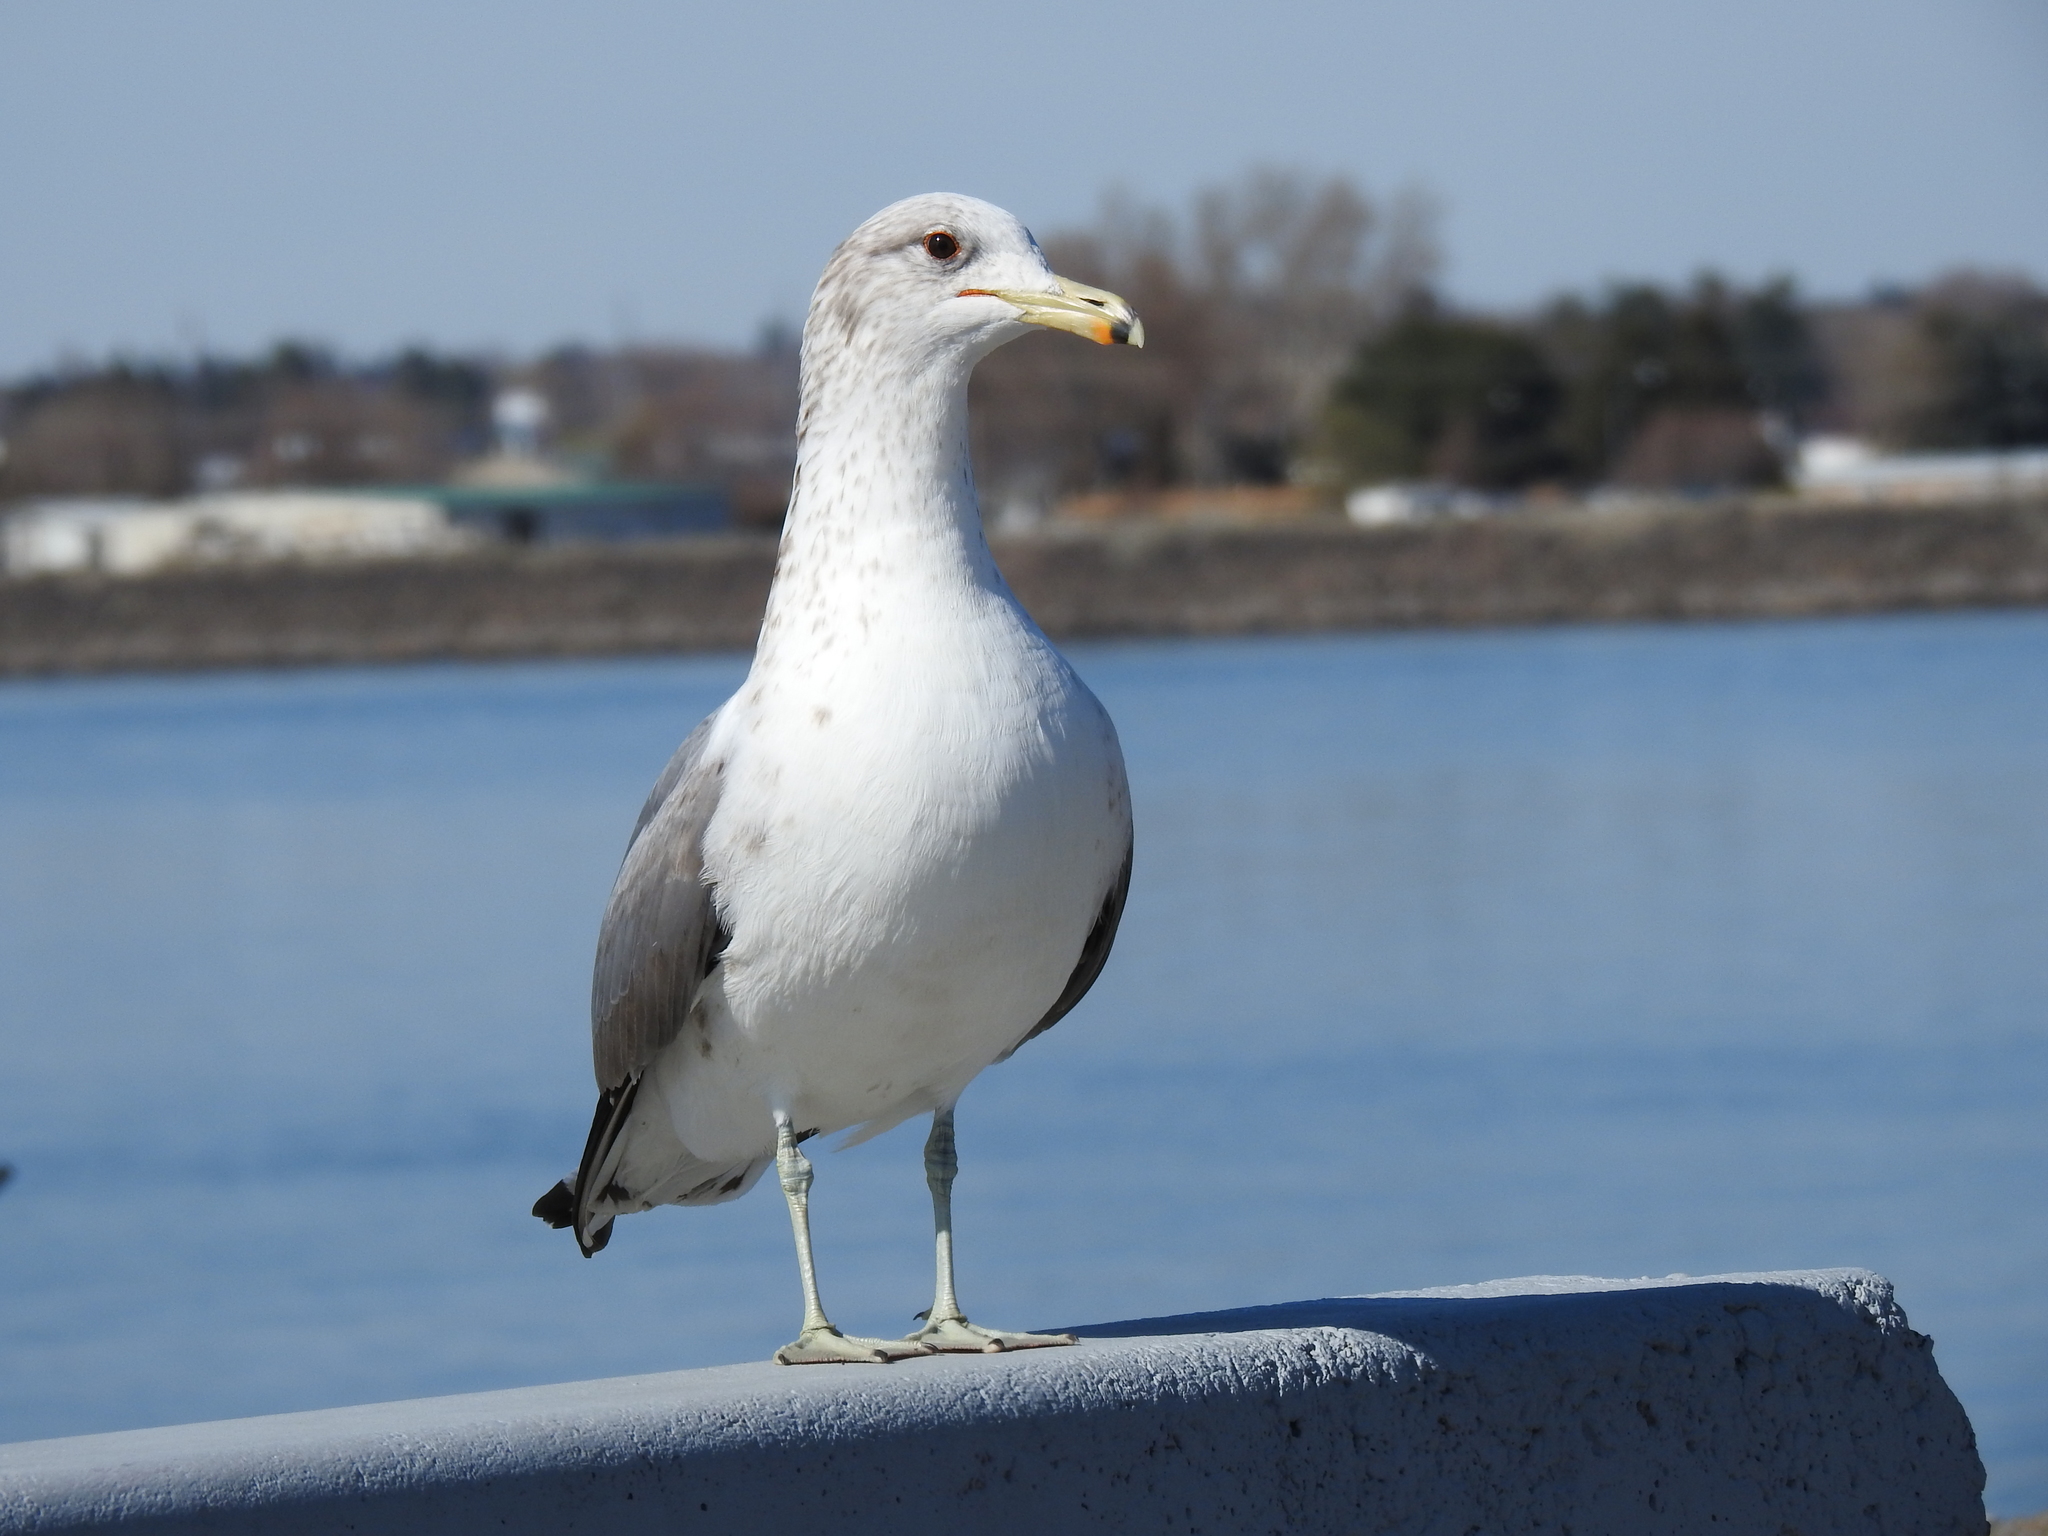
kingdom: Animalia
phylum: Chordata
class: Aves
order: Charadriiformes
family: Laridae
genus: Larus
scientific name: Larus californicus
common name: California gull
